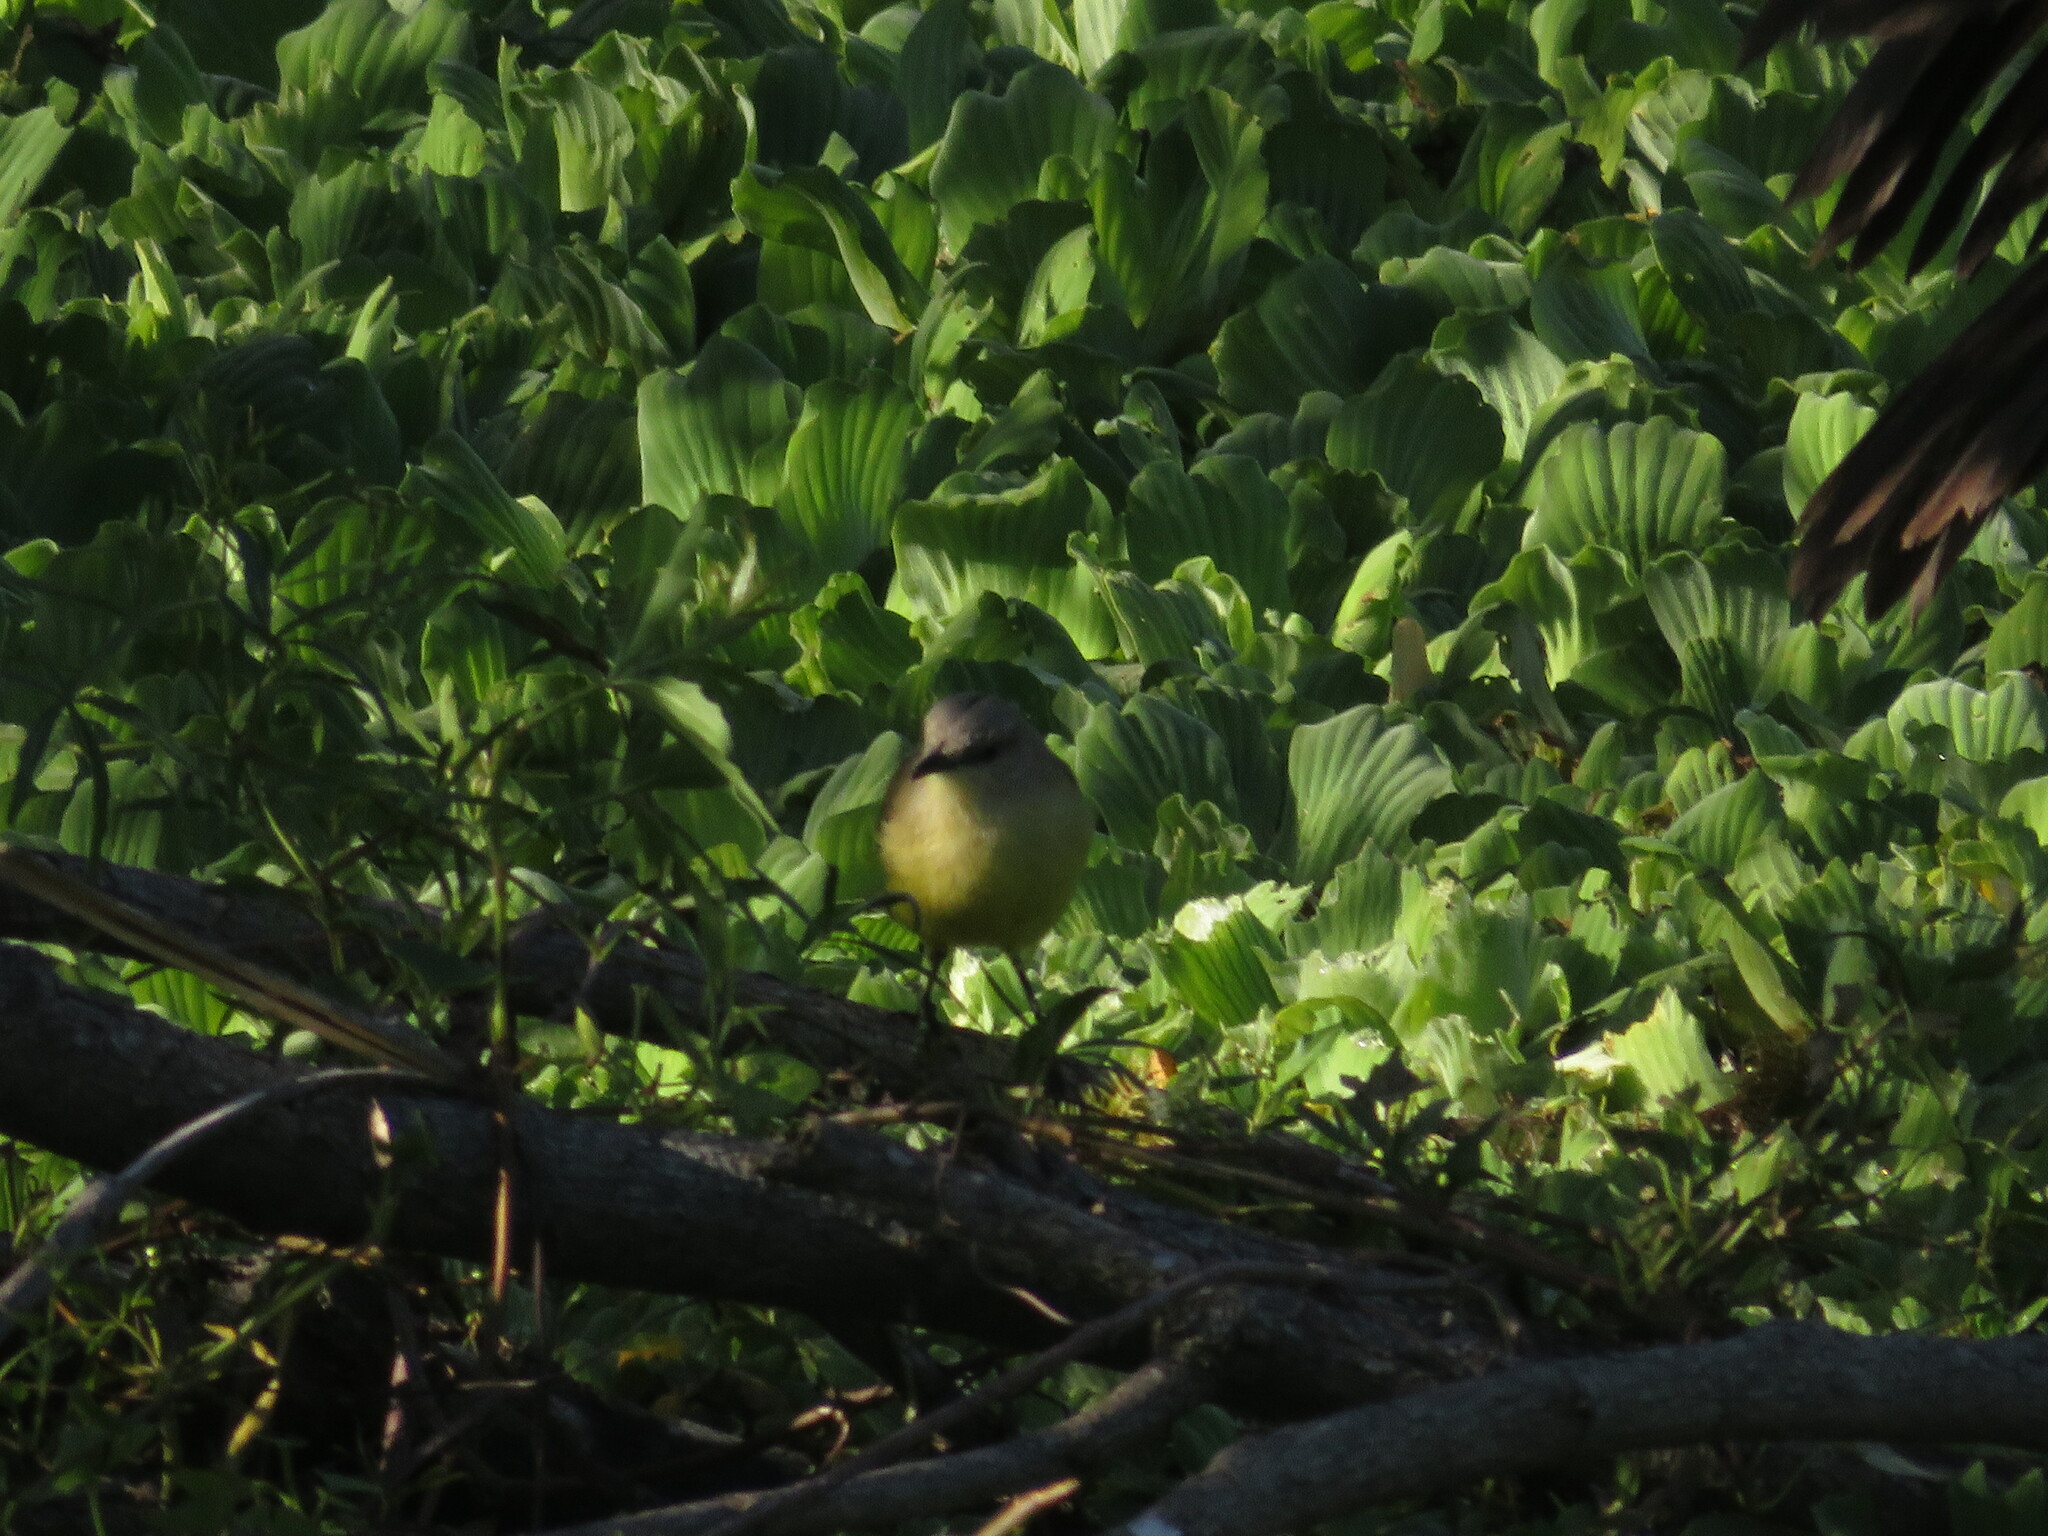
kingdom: Animalia
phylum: Chordata
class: Aves
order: Passeriformes
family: Tyrannidae
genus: Machetornis
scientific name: Machetornis rixosa
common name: Cattle tyrant
